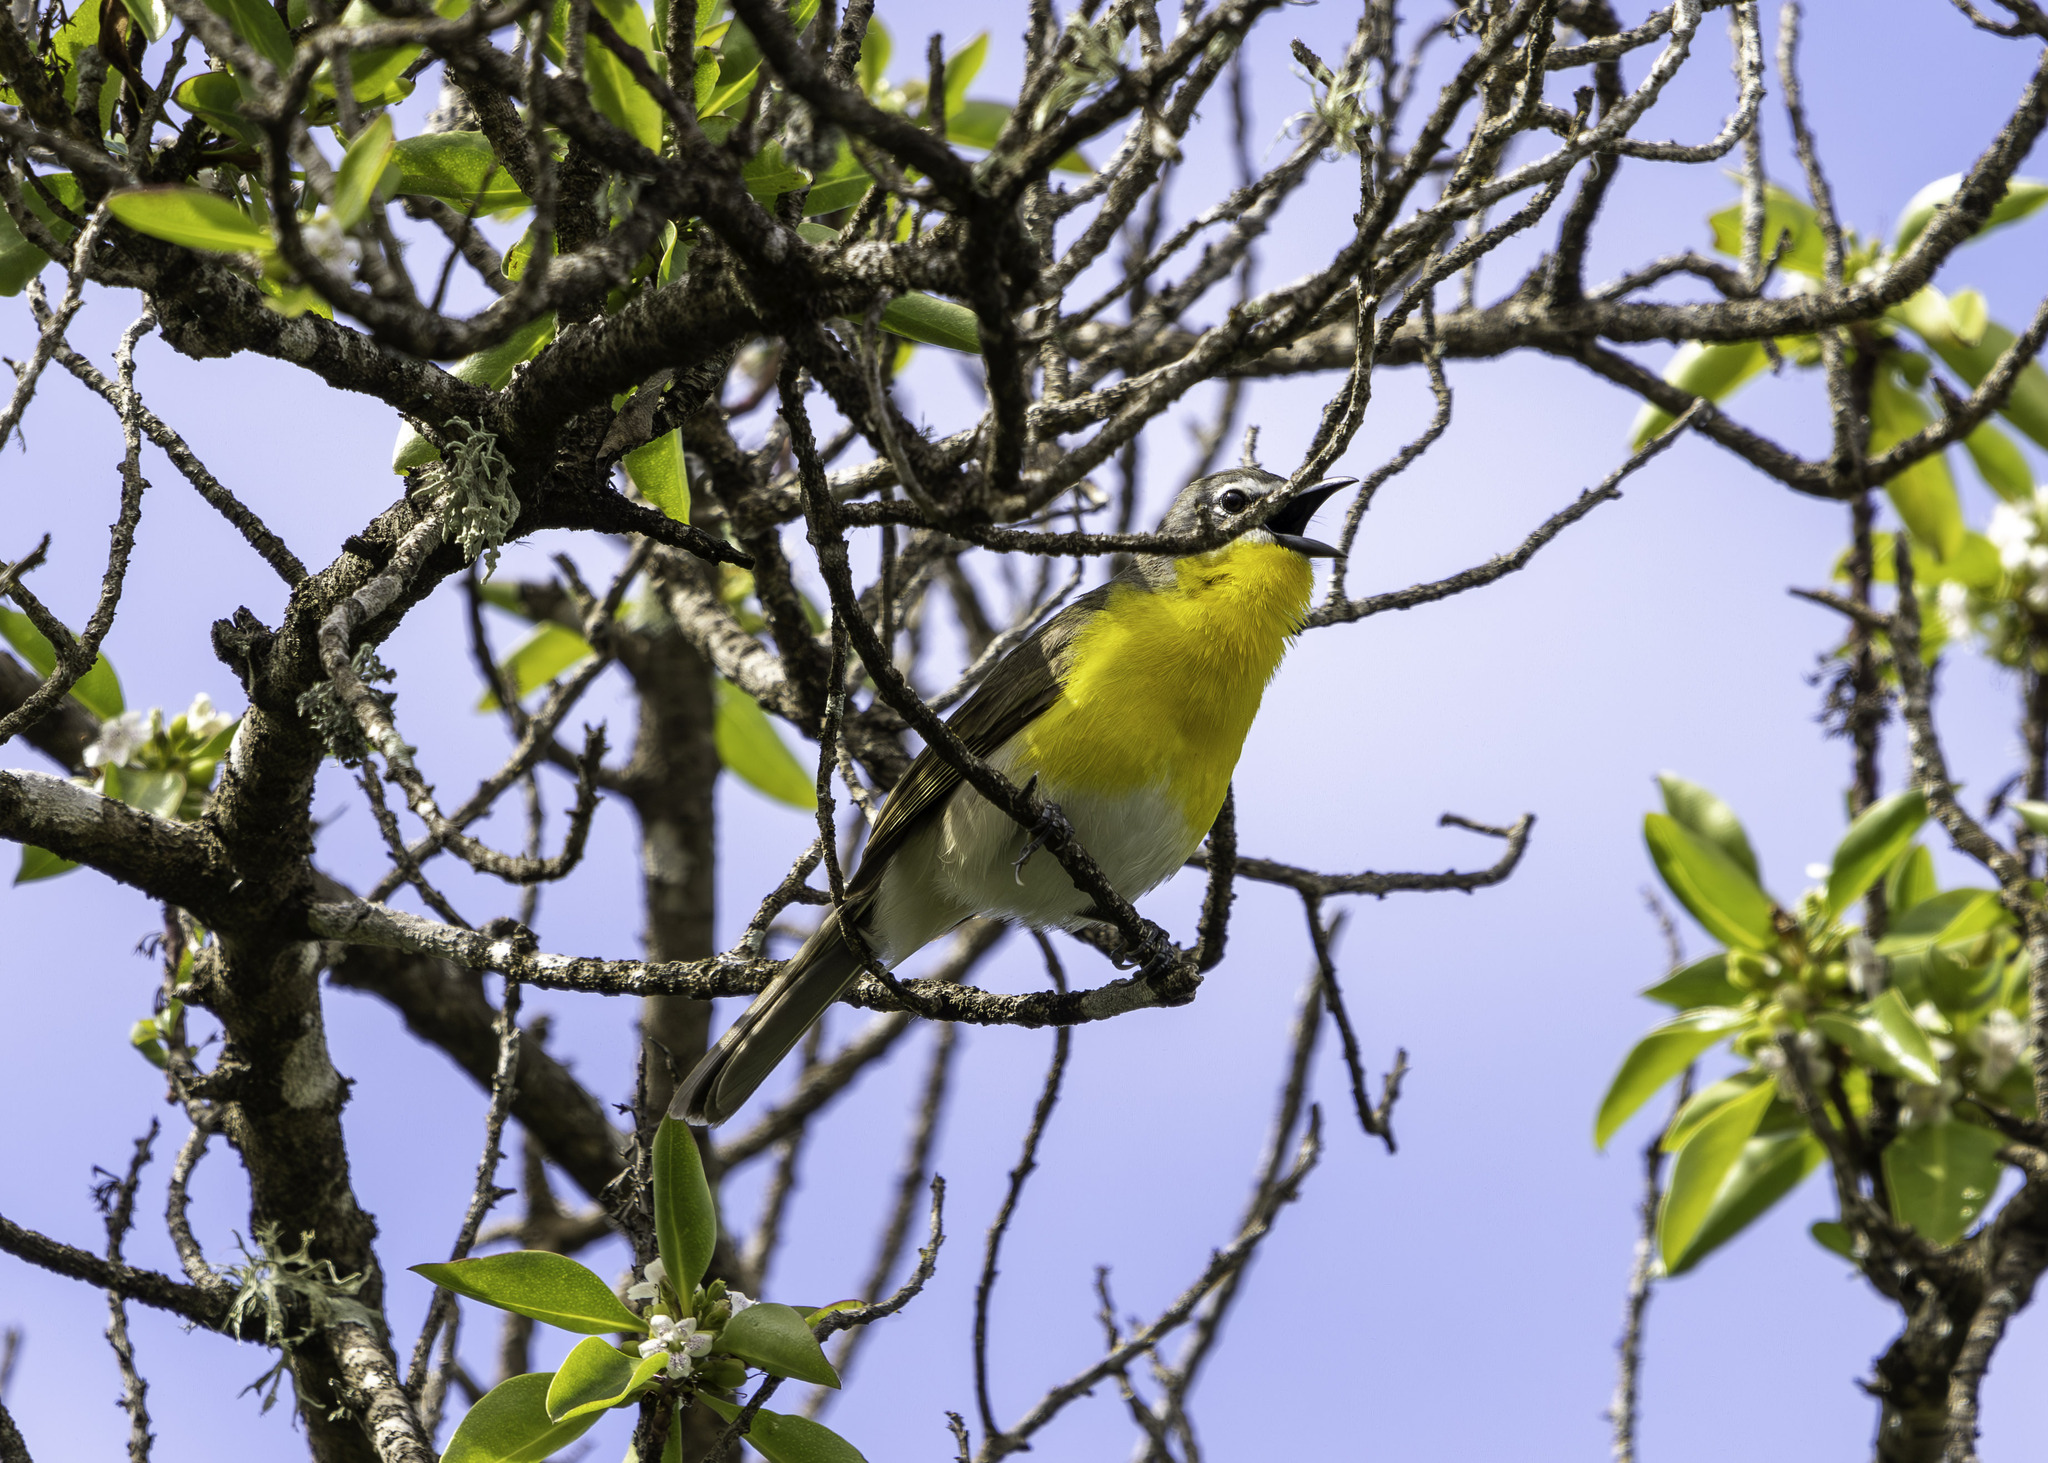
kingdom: Animalia
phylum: Chordata
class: Aves
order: Passeriformes
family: Parulidae
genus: Icteria
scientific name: Icteria virens
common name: Yellow-breasted chat
